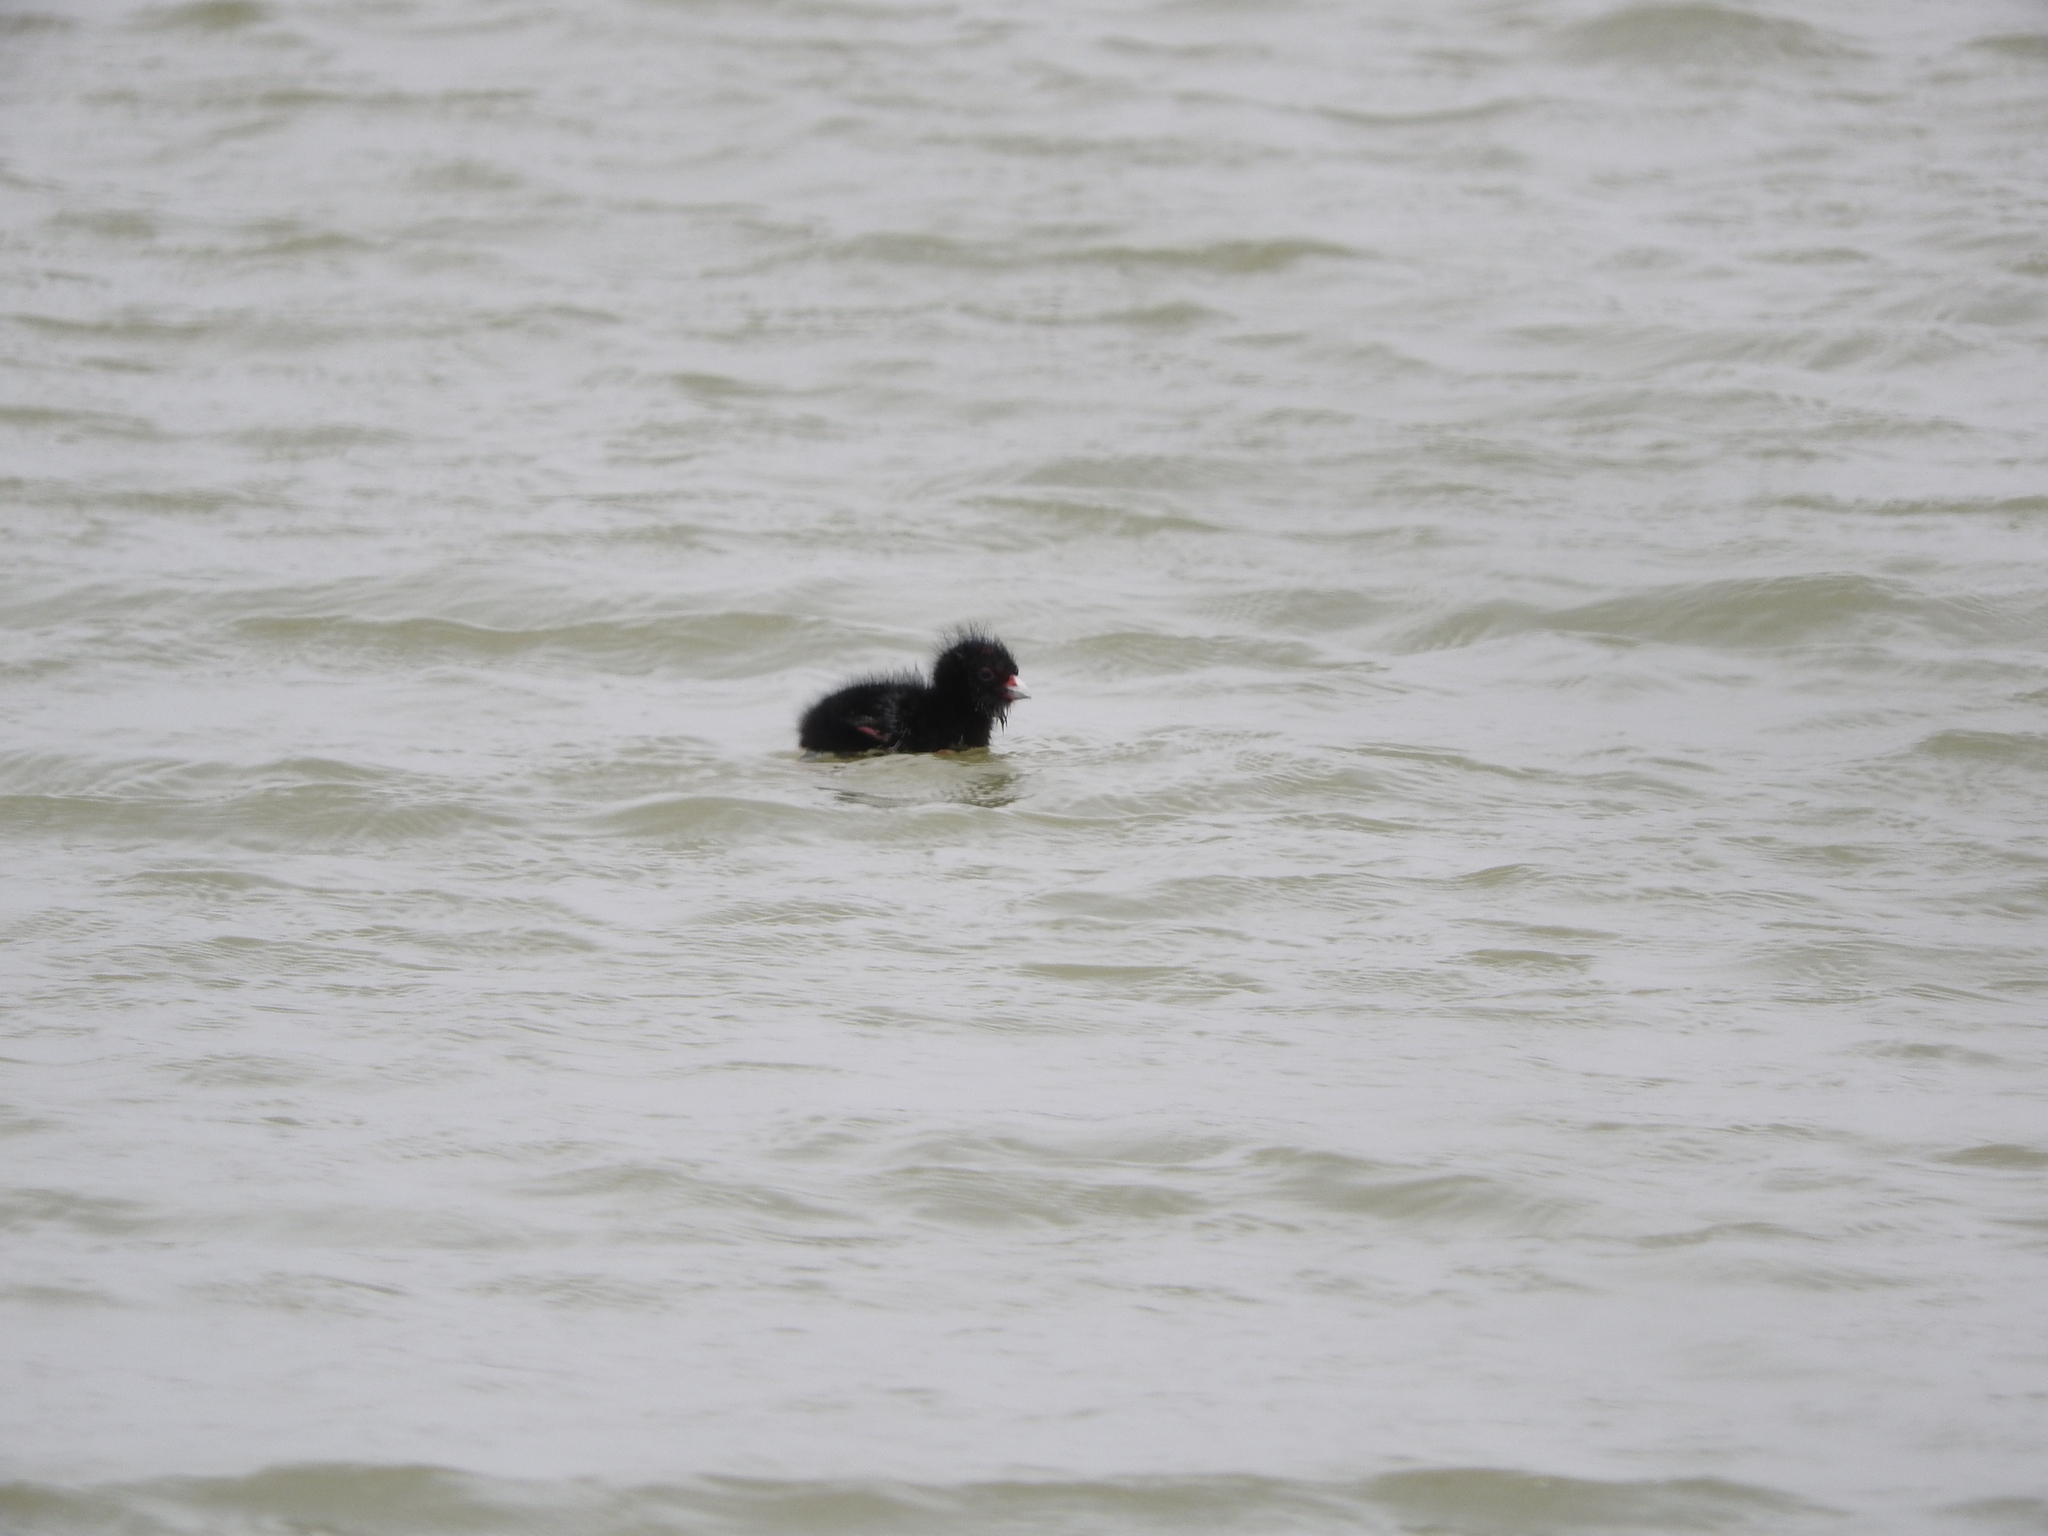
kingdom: Animalia
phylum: Chordata
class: Aves
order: Gruiformes
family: Rallidae
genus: Porphyrio
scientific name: Porphyrio porphyrio
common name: Purple swamphen
